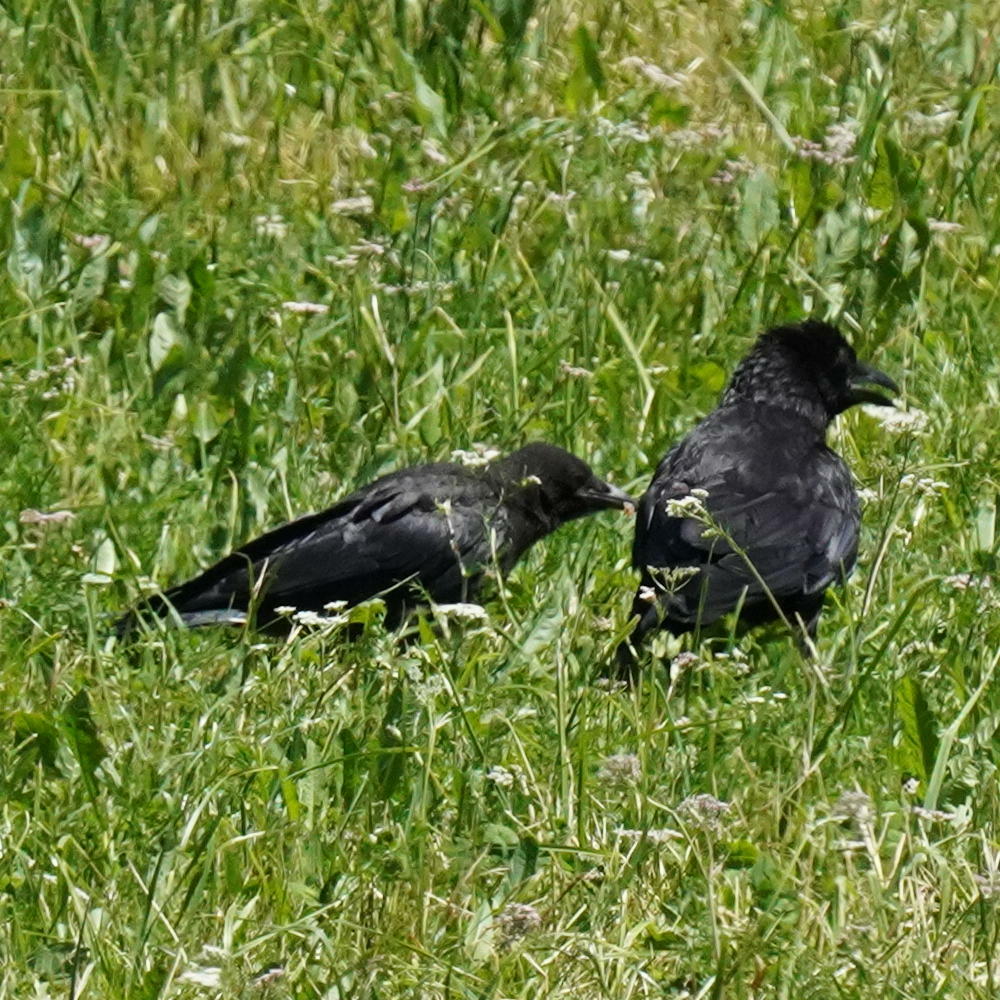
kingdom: Animalia
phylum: Chordata
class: Aves
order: Passeriformes
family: Corvidae
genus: Corvus
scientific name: Corvus corone
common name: Carrion crow
